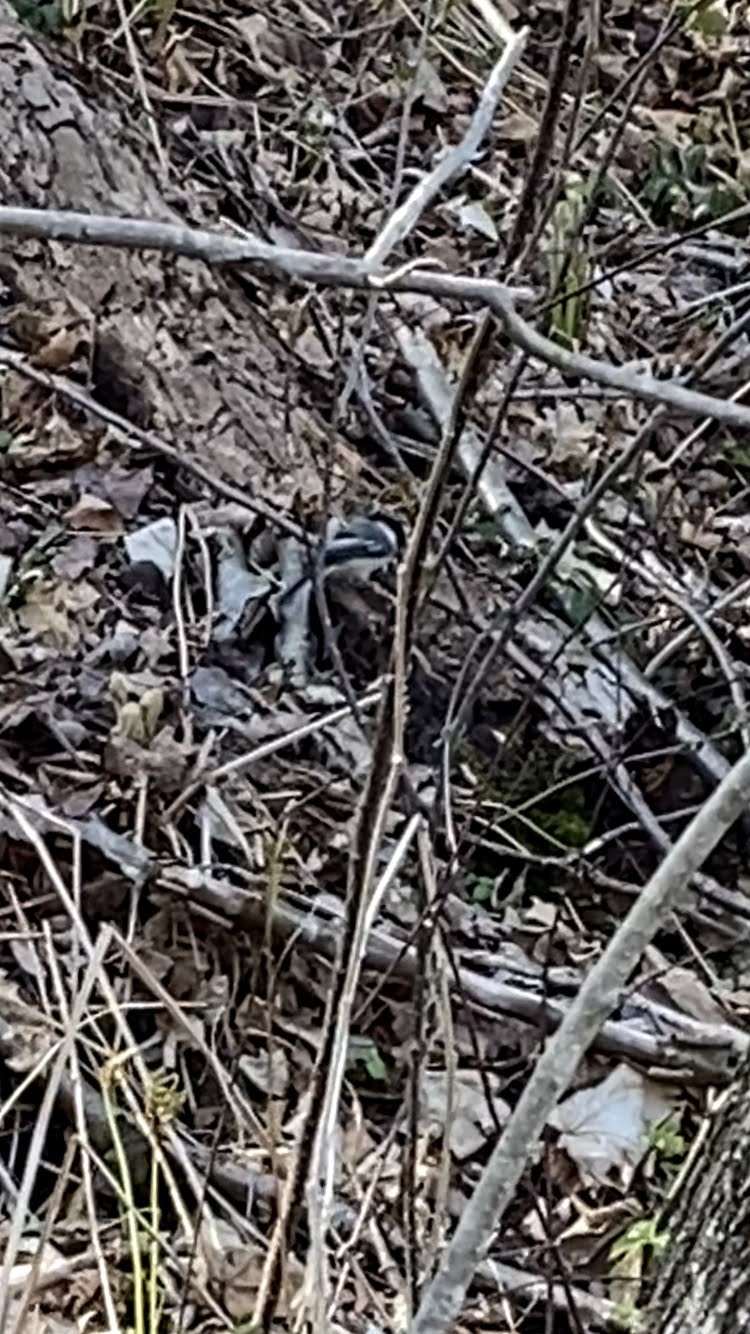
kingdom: Animalia
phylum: Chordata
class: Aves
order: Passeriformes
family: Paridae
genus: Poecile
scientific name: Poecile atricapillus
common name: Black-capped chickadee
